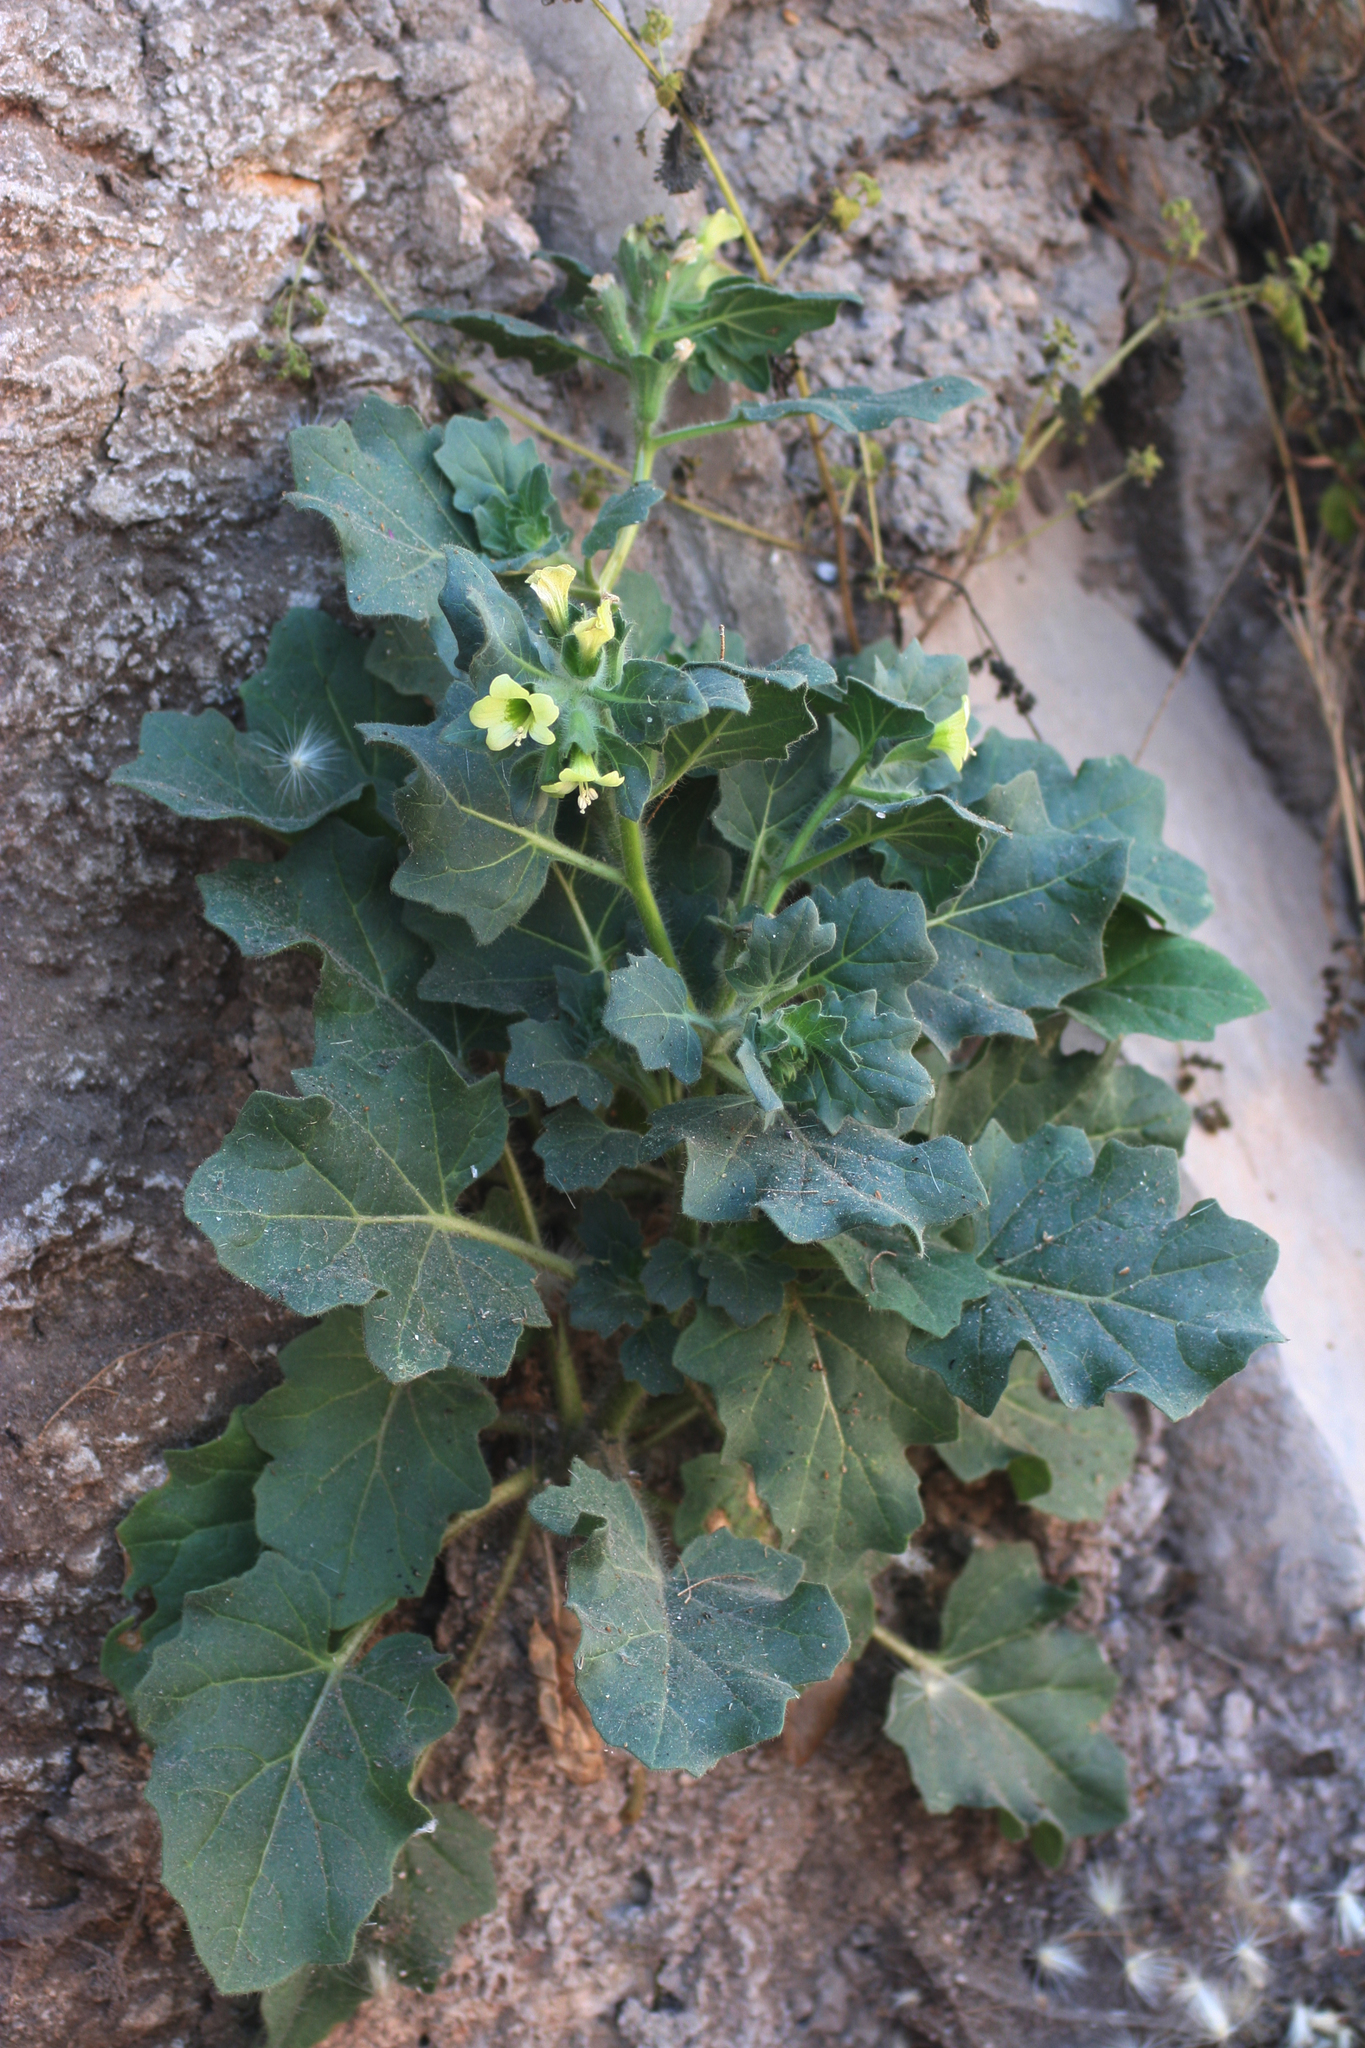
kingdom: Plantae
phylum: Tracheophyta
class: Magnoliopsida
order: Solanales
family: Solanaceae
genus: Hyoscyamus
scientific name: Hyoscyamus albus
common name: White henbane
